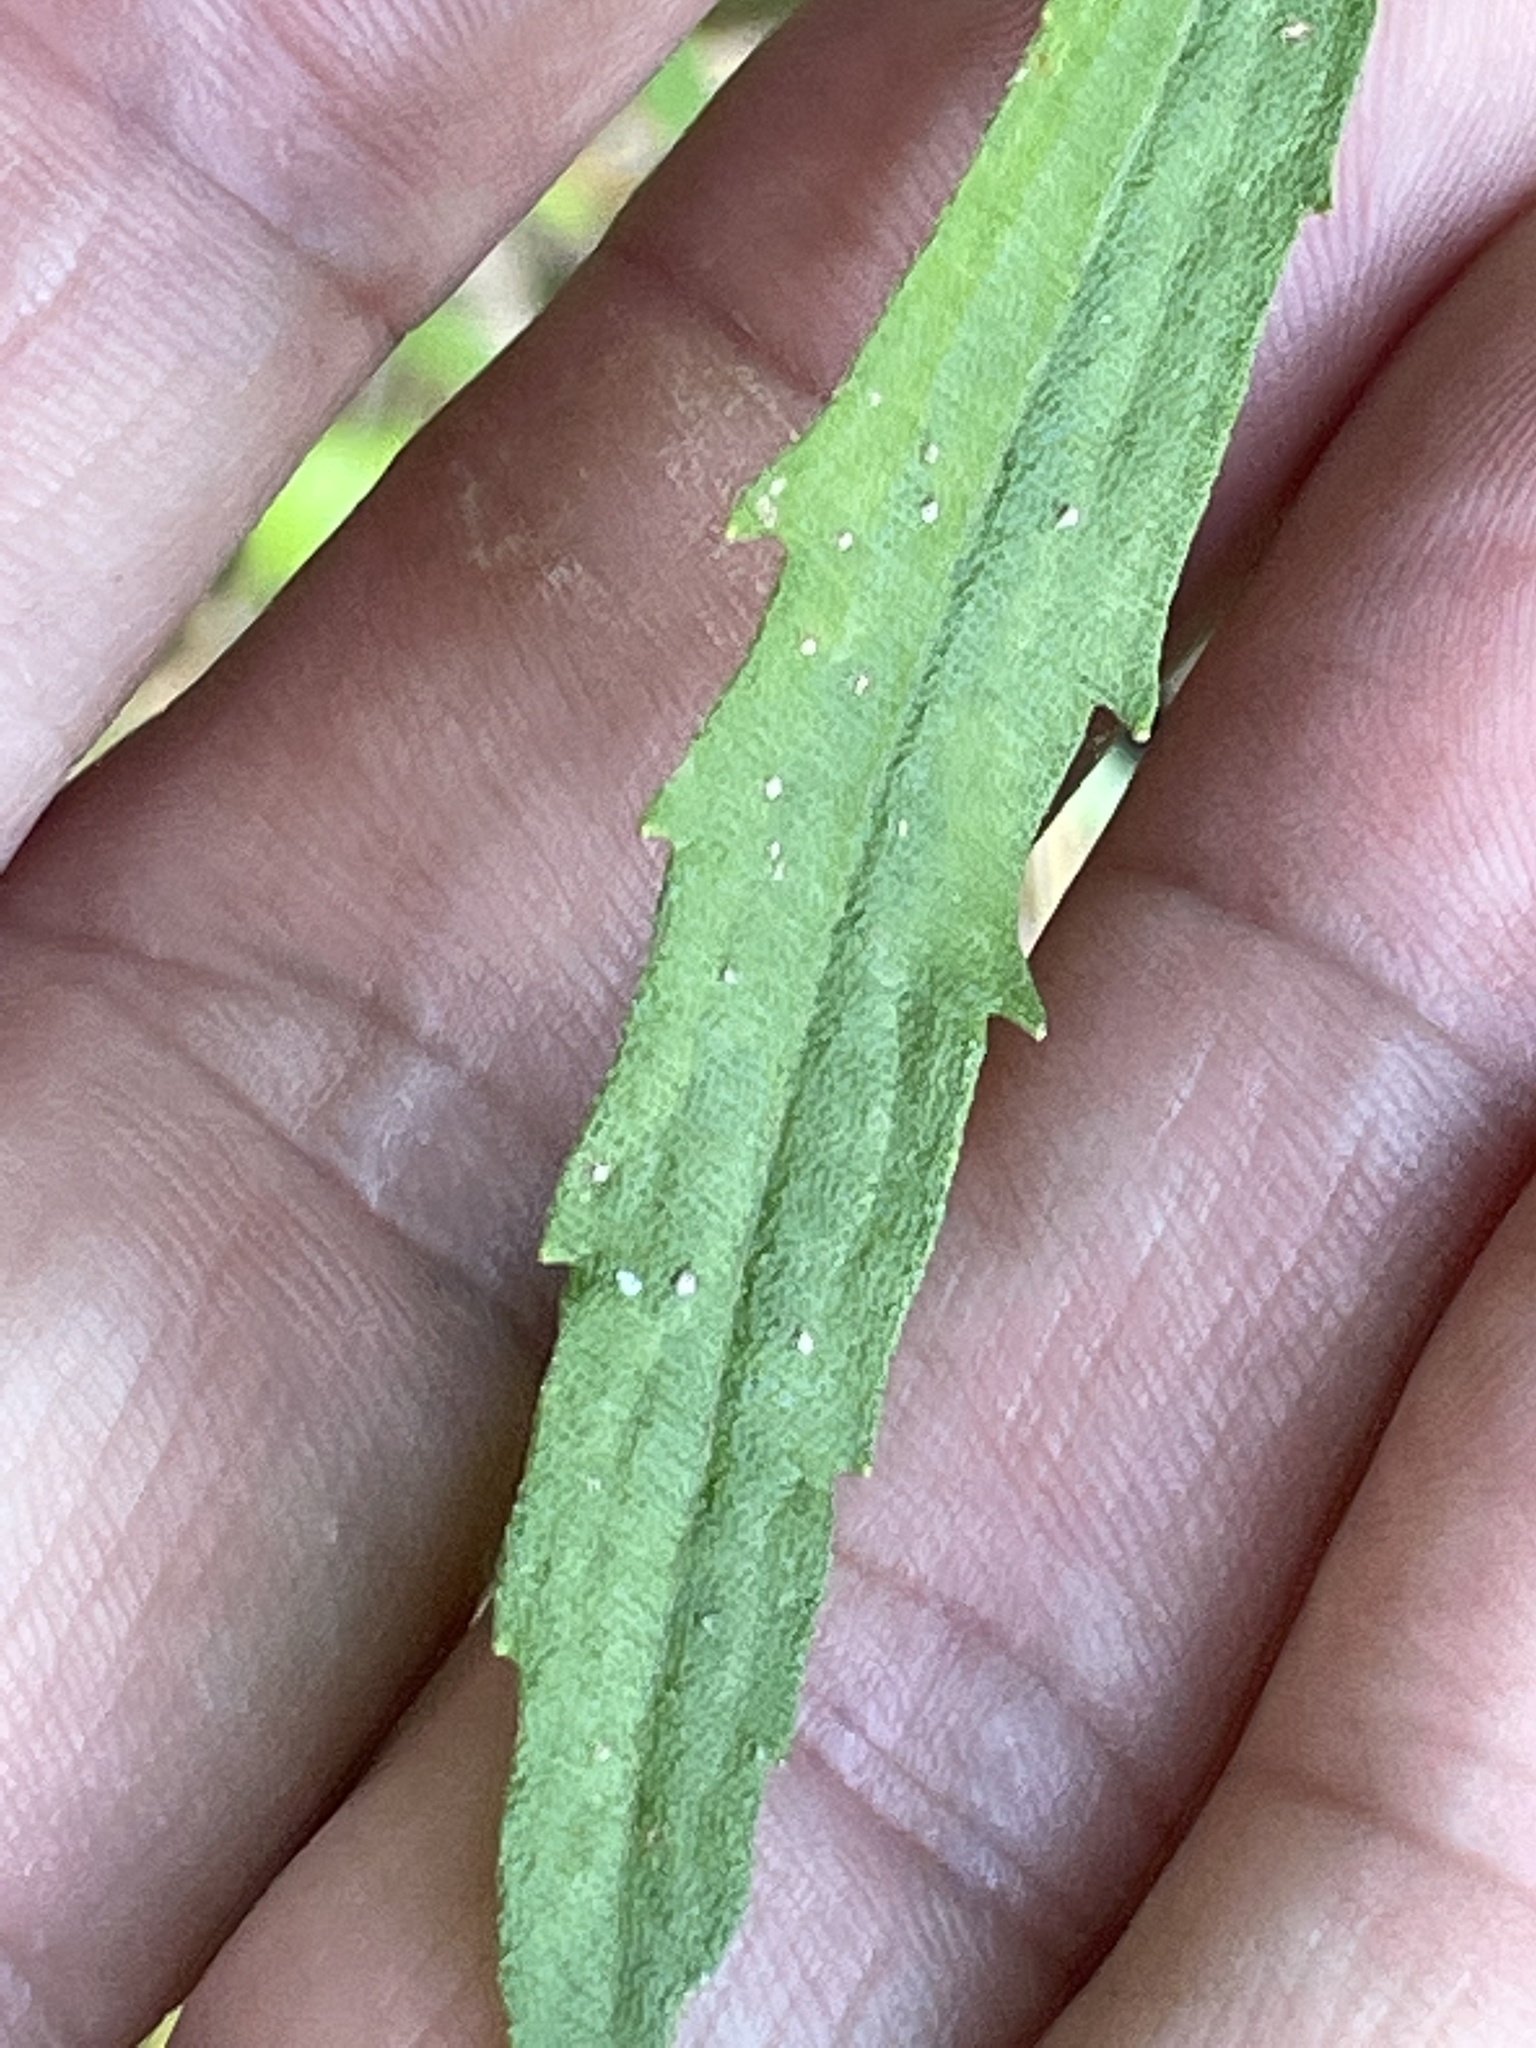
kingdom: Plantae
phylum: Tracheophyta
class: Magnoliopsida
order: Asterales
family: Asteraceae
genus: Eupatorium
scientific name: Eupatorium torreyanum
